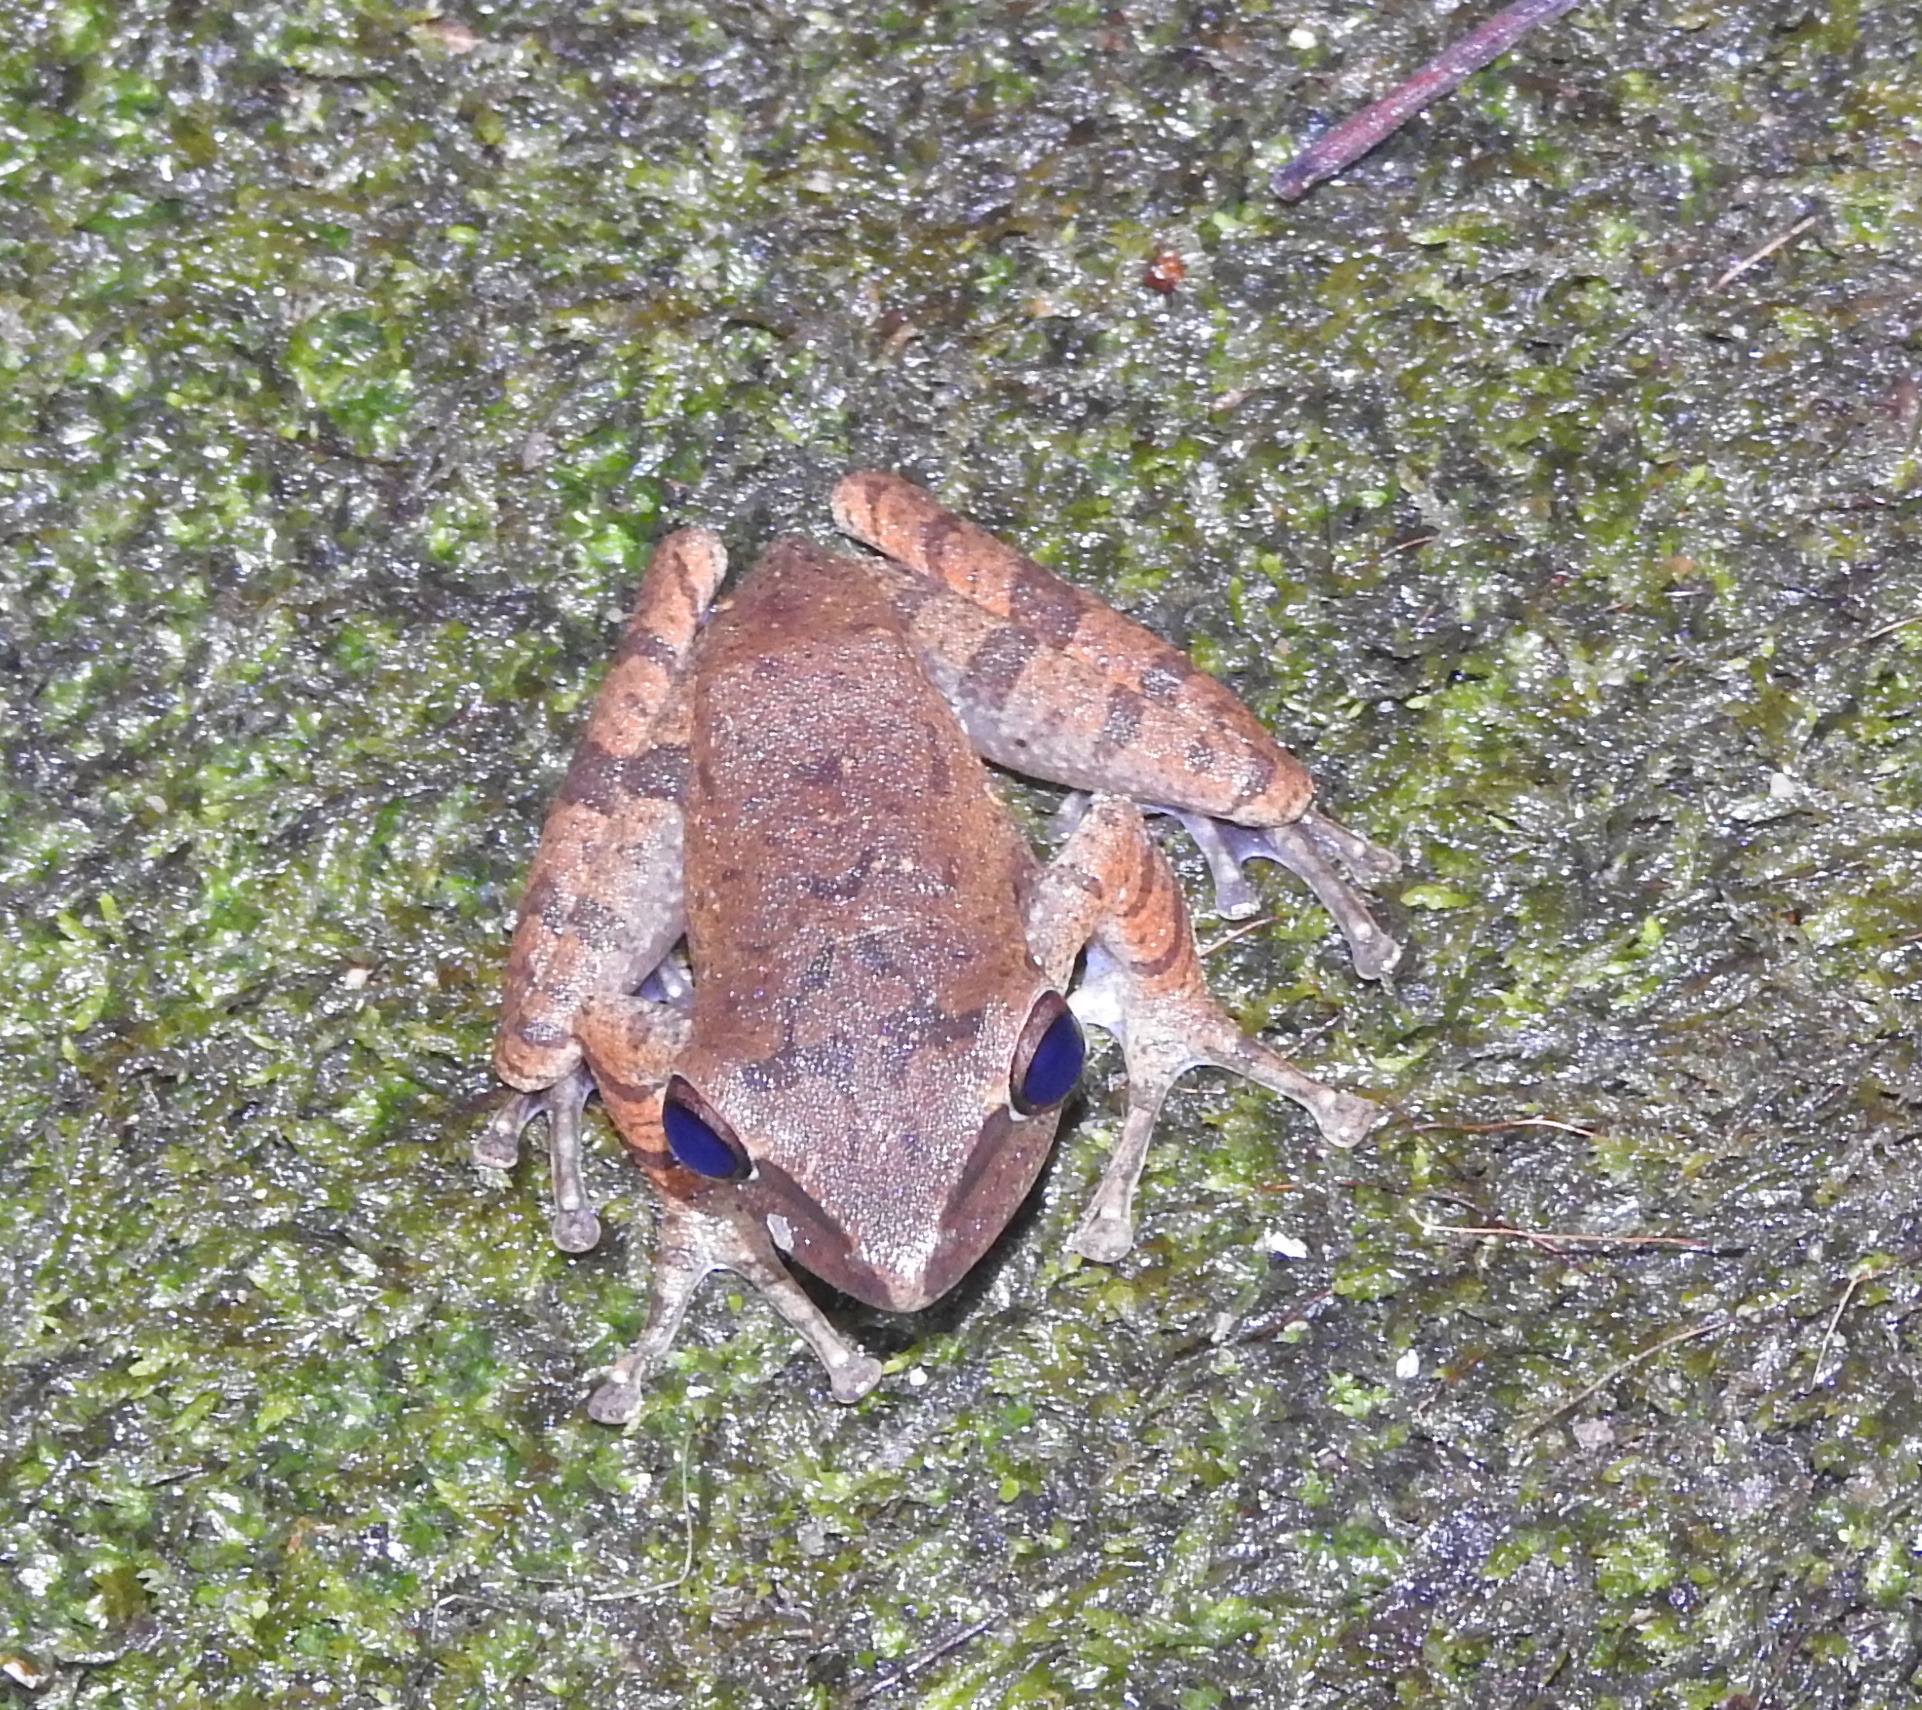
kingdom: Animalia
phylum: Chordata
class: Amphibia
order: Anura
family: Rhacophoridae
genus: Polypedates
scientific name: Polypedates leucomystax
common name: Common tree frog/four-lined tree frog
